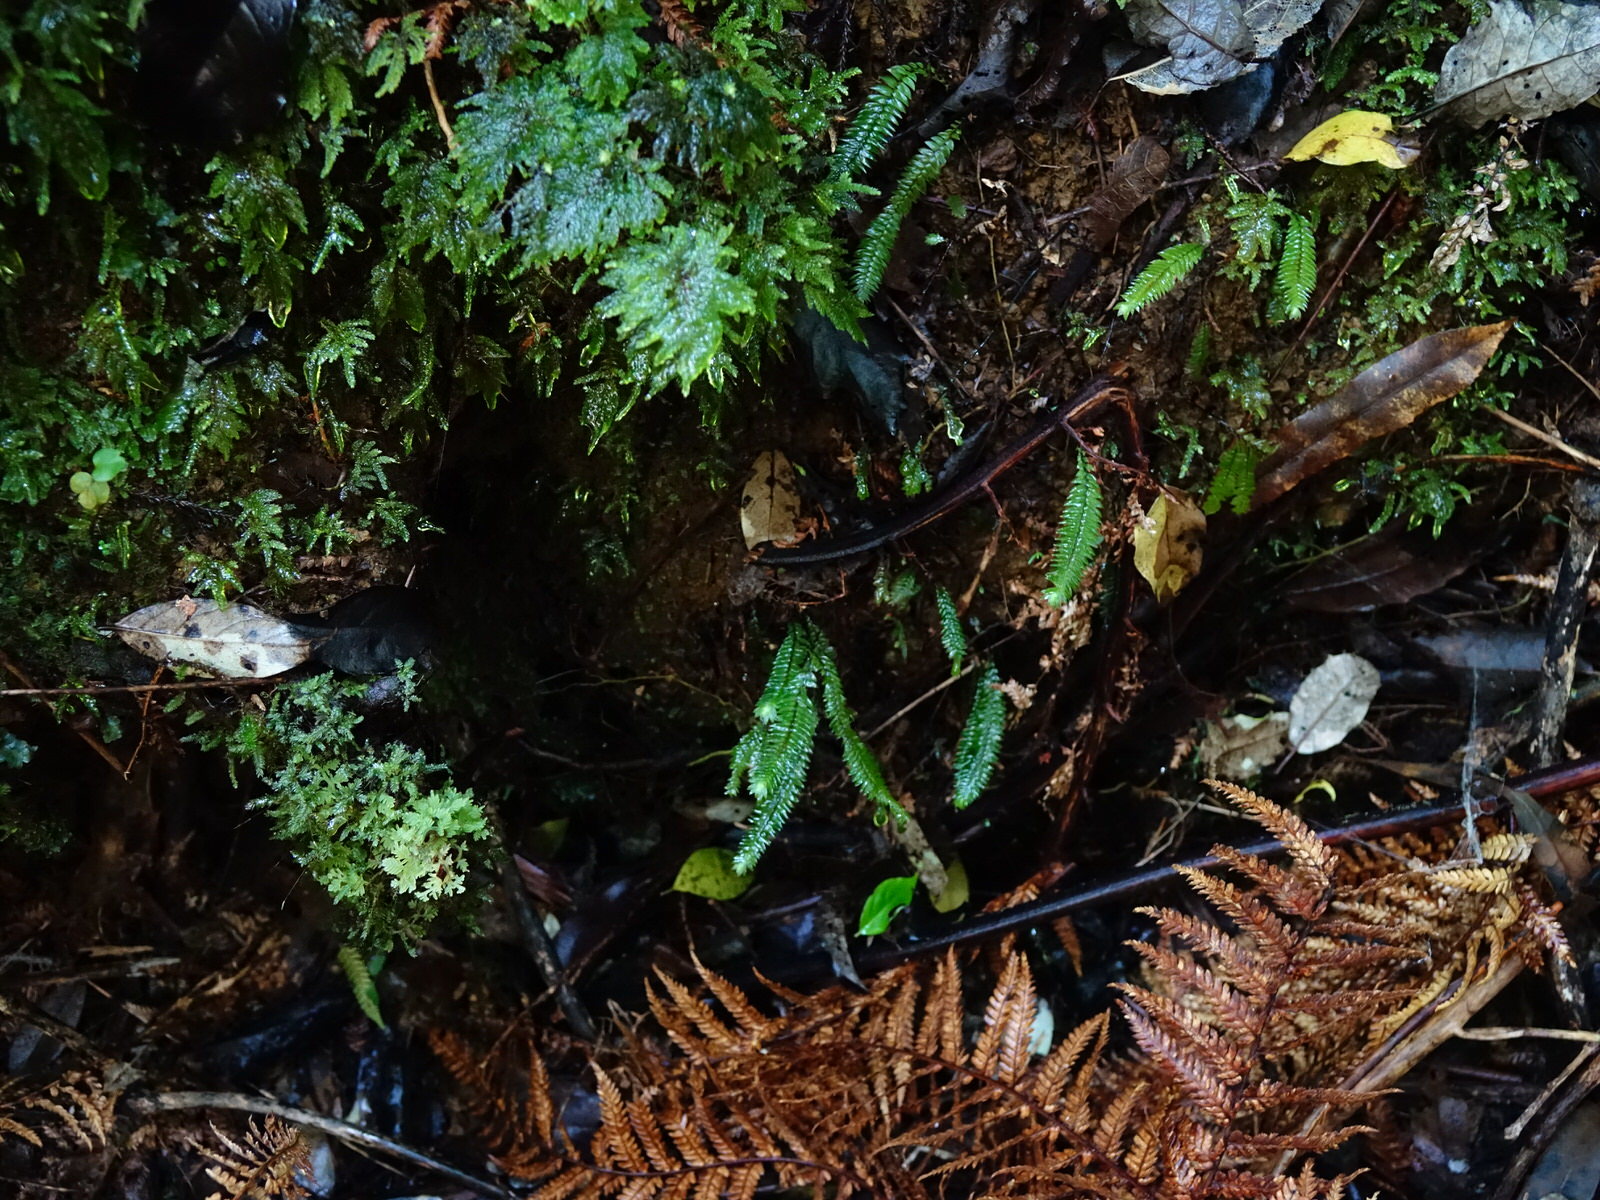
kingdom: Plantae
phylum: Bryophyta
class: Bryopsida
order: Hypopterygiales
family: Hypopterygiaceae
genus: Cyathophorum
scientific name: Cyathophorum bulbosum
